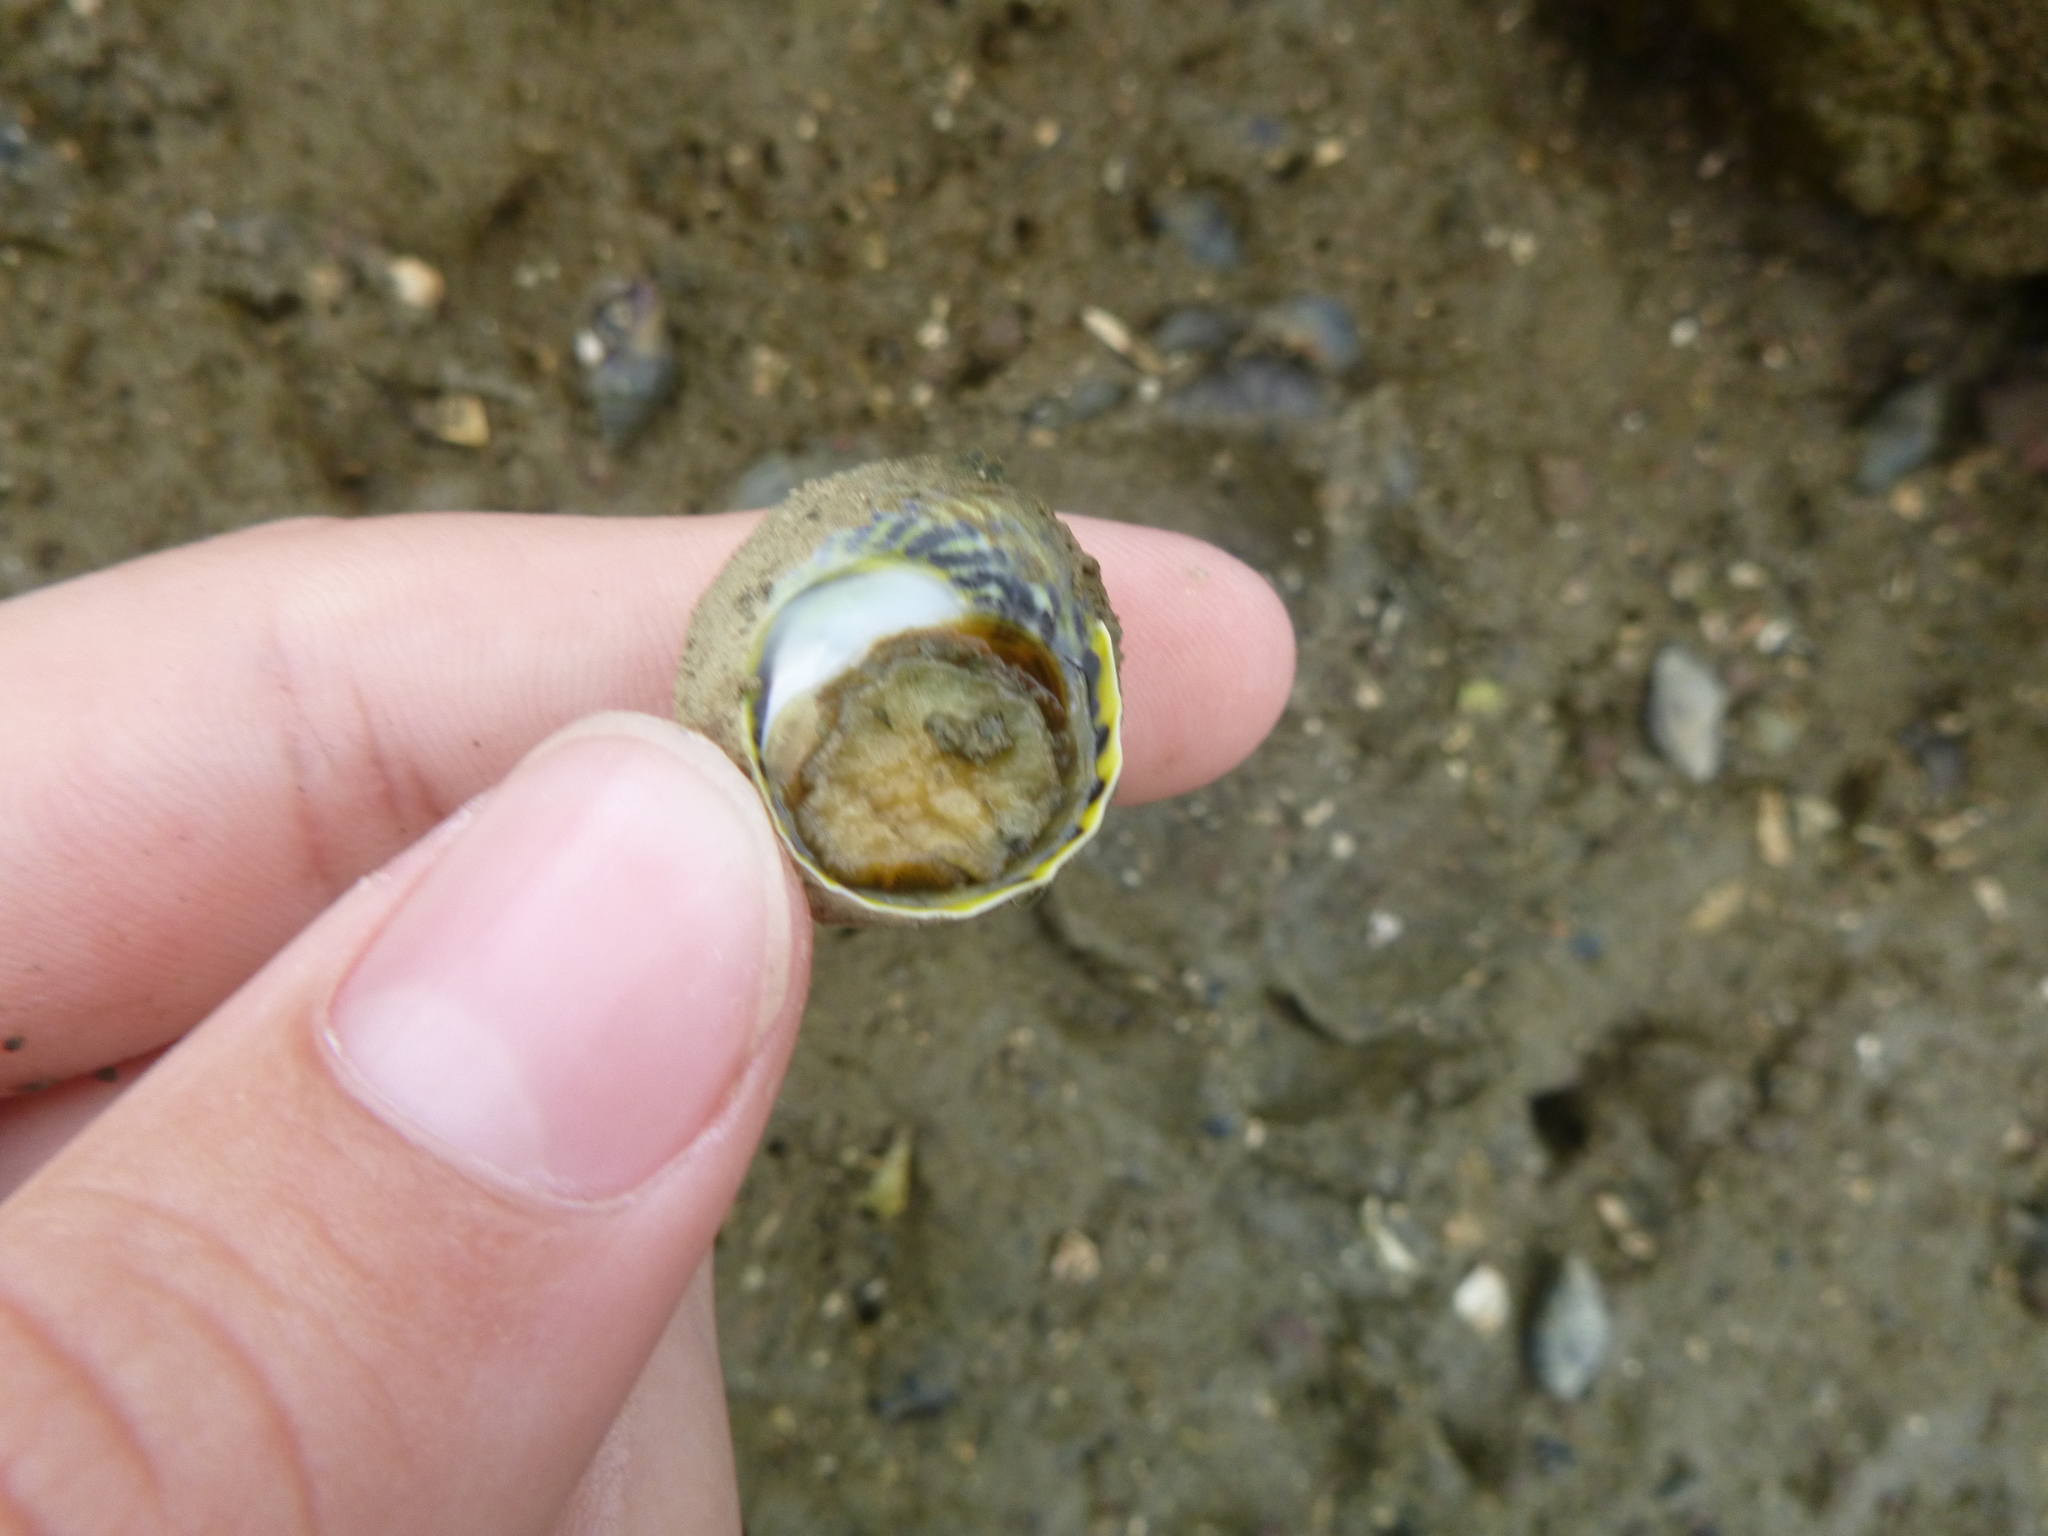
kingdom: Animalia
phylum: Mollusca
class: Gastropoda
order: Trochida
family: Trochidae
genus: Diloma
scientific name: Diloma subrostratum
